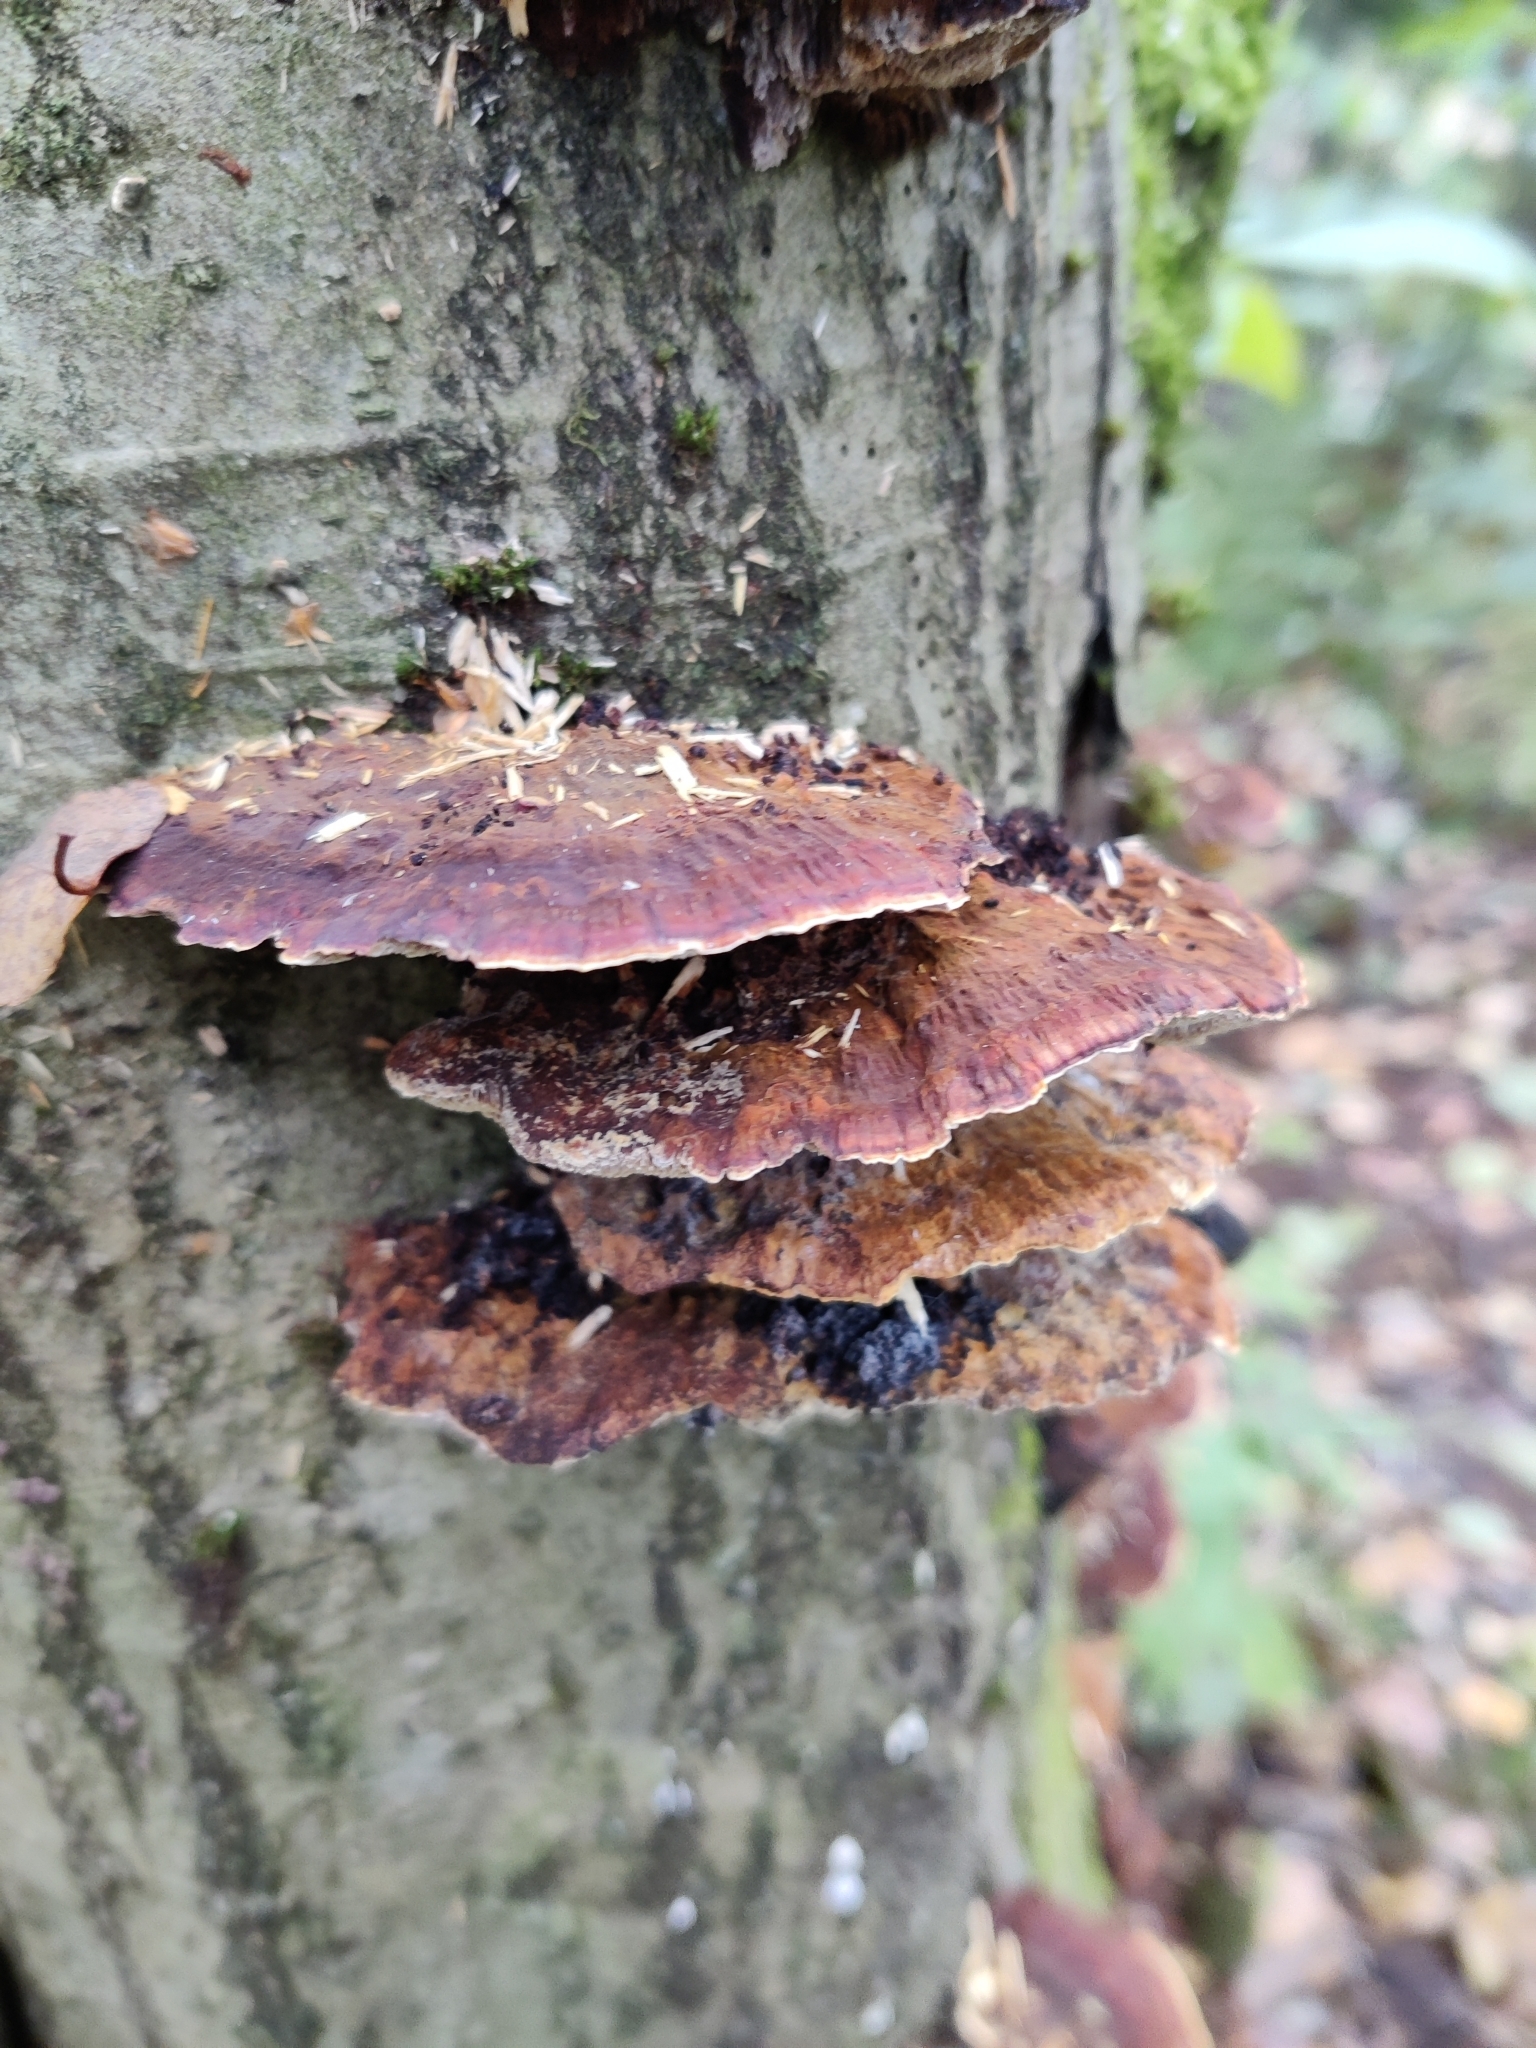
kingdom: Fungi
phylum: Basidiomycota
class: Agaricomycetes
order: Hymenochaetales
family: Hymenochaetaceae
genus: Xanthoporia
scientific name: Xanthoporia radiata
